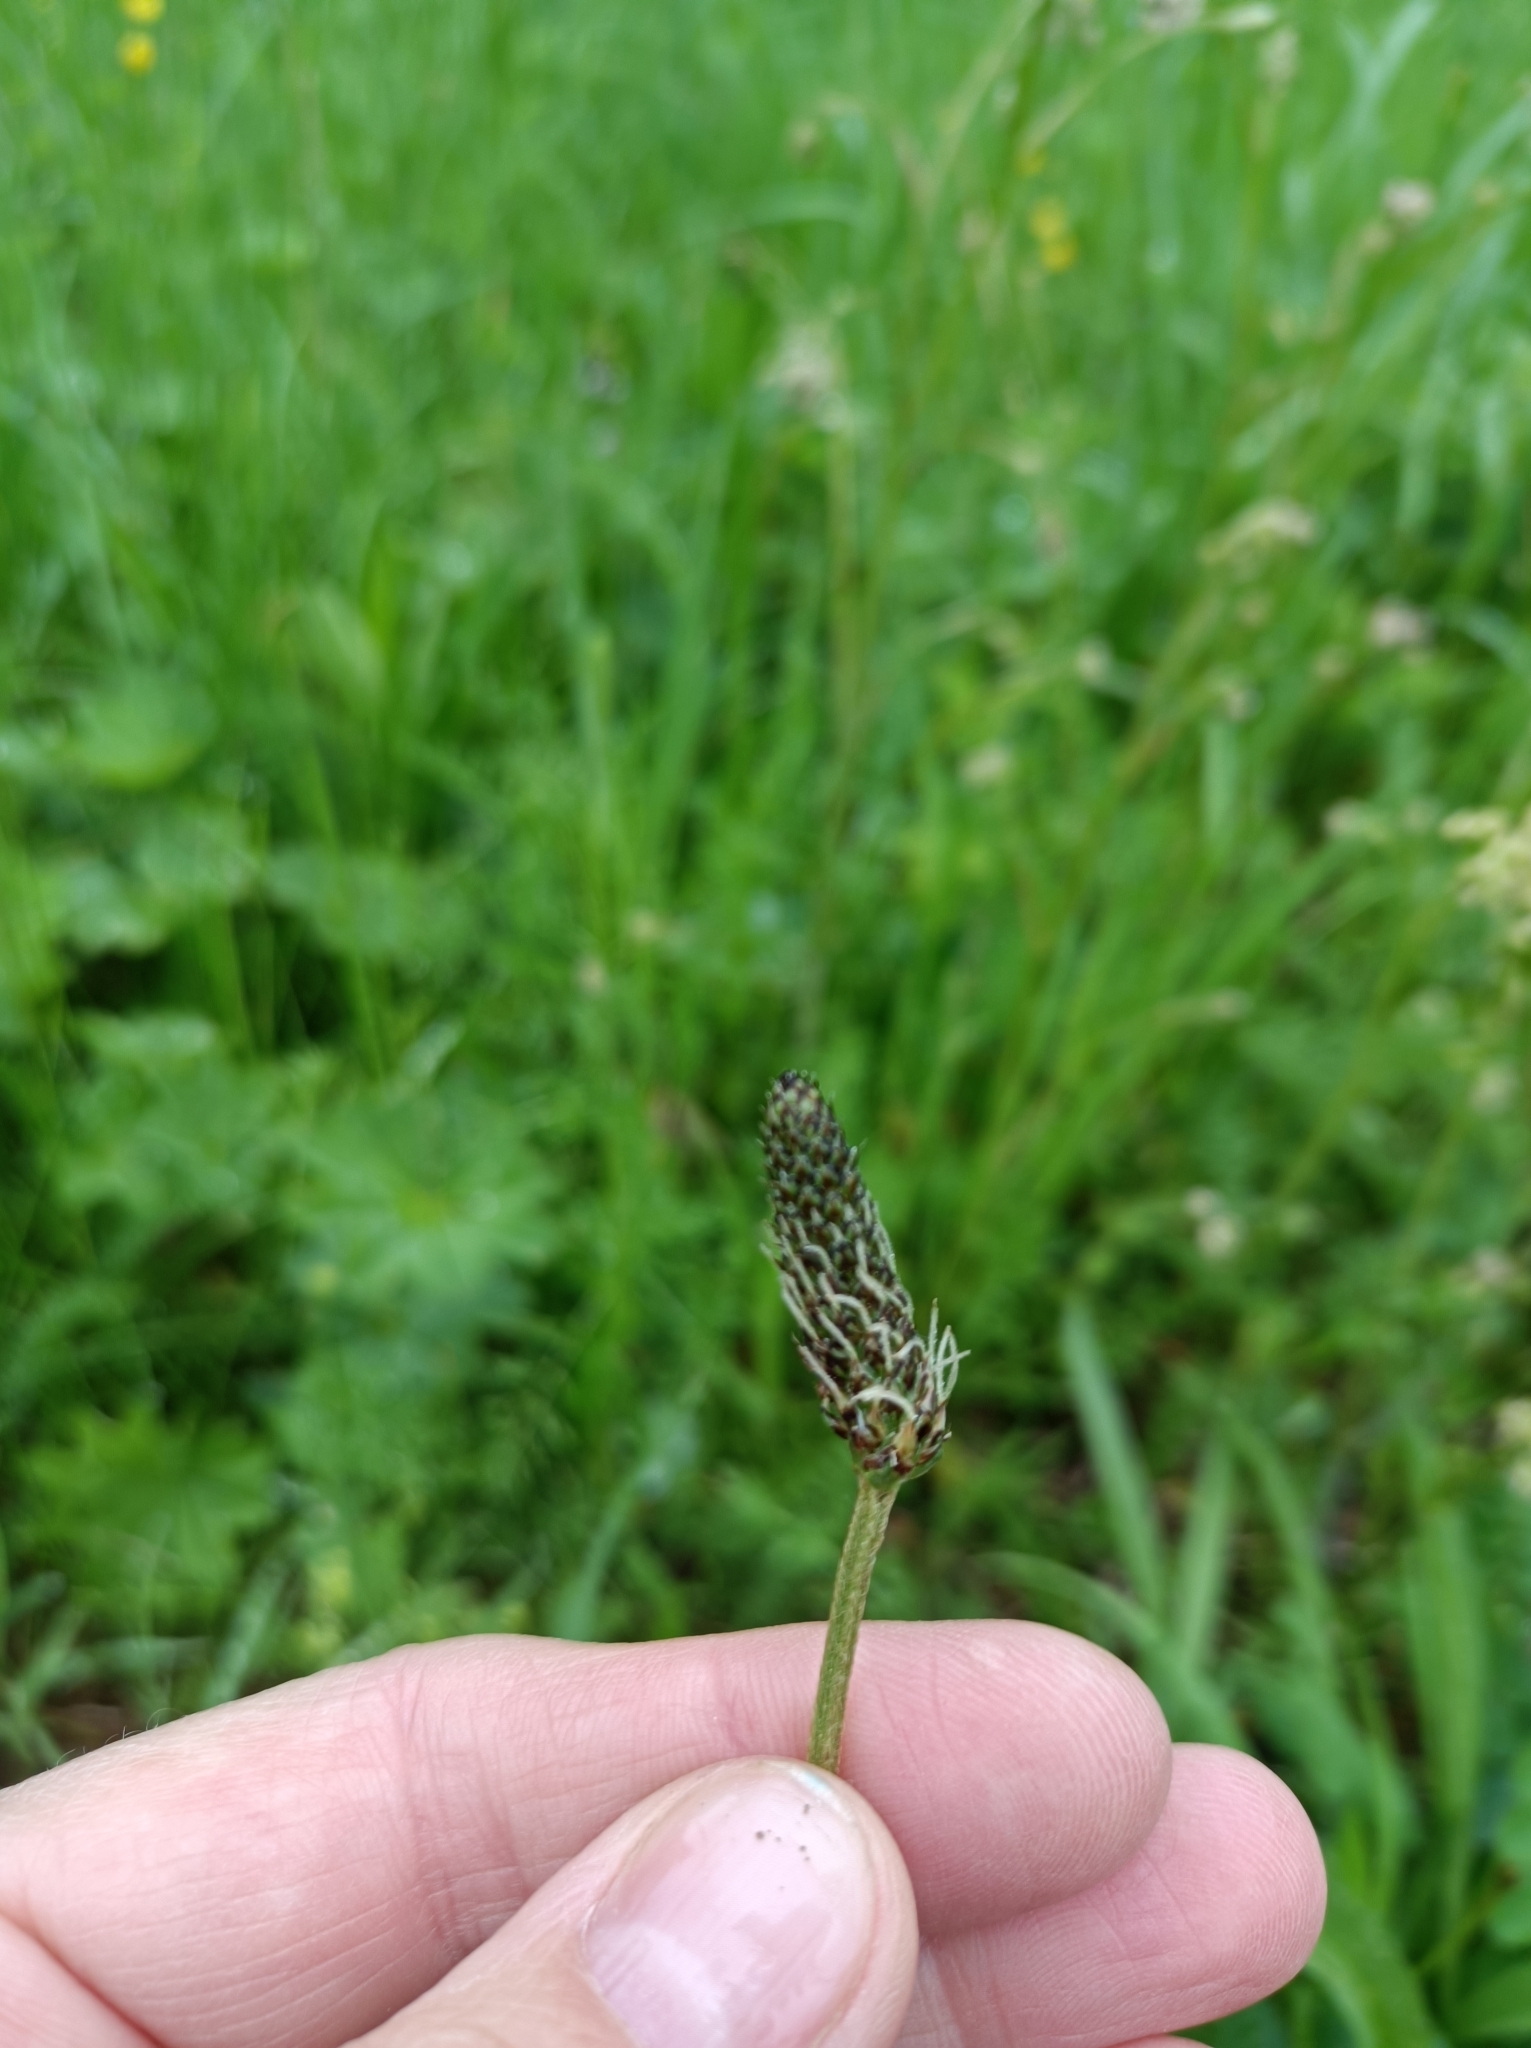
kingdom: Plantae
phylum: Tracheophyta
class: Magnoliopsida
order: Lamiales
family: Plantaginaceae
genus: Plantago
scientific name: Plantago lanceolata
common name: Ribwort plantain
